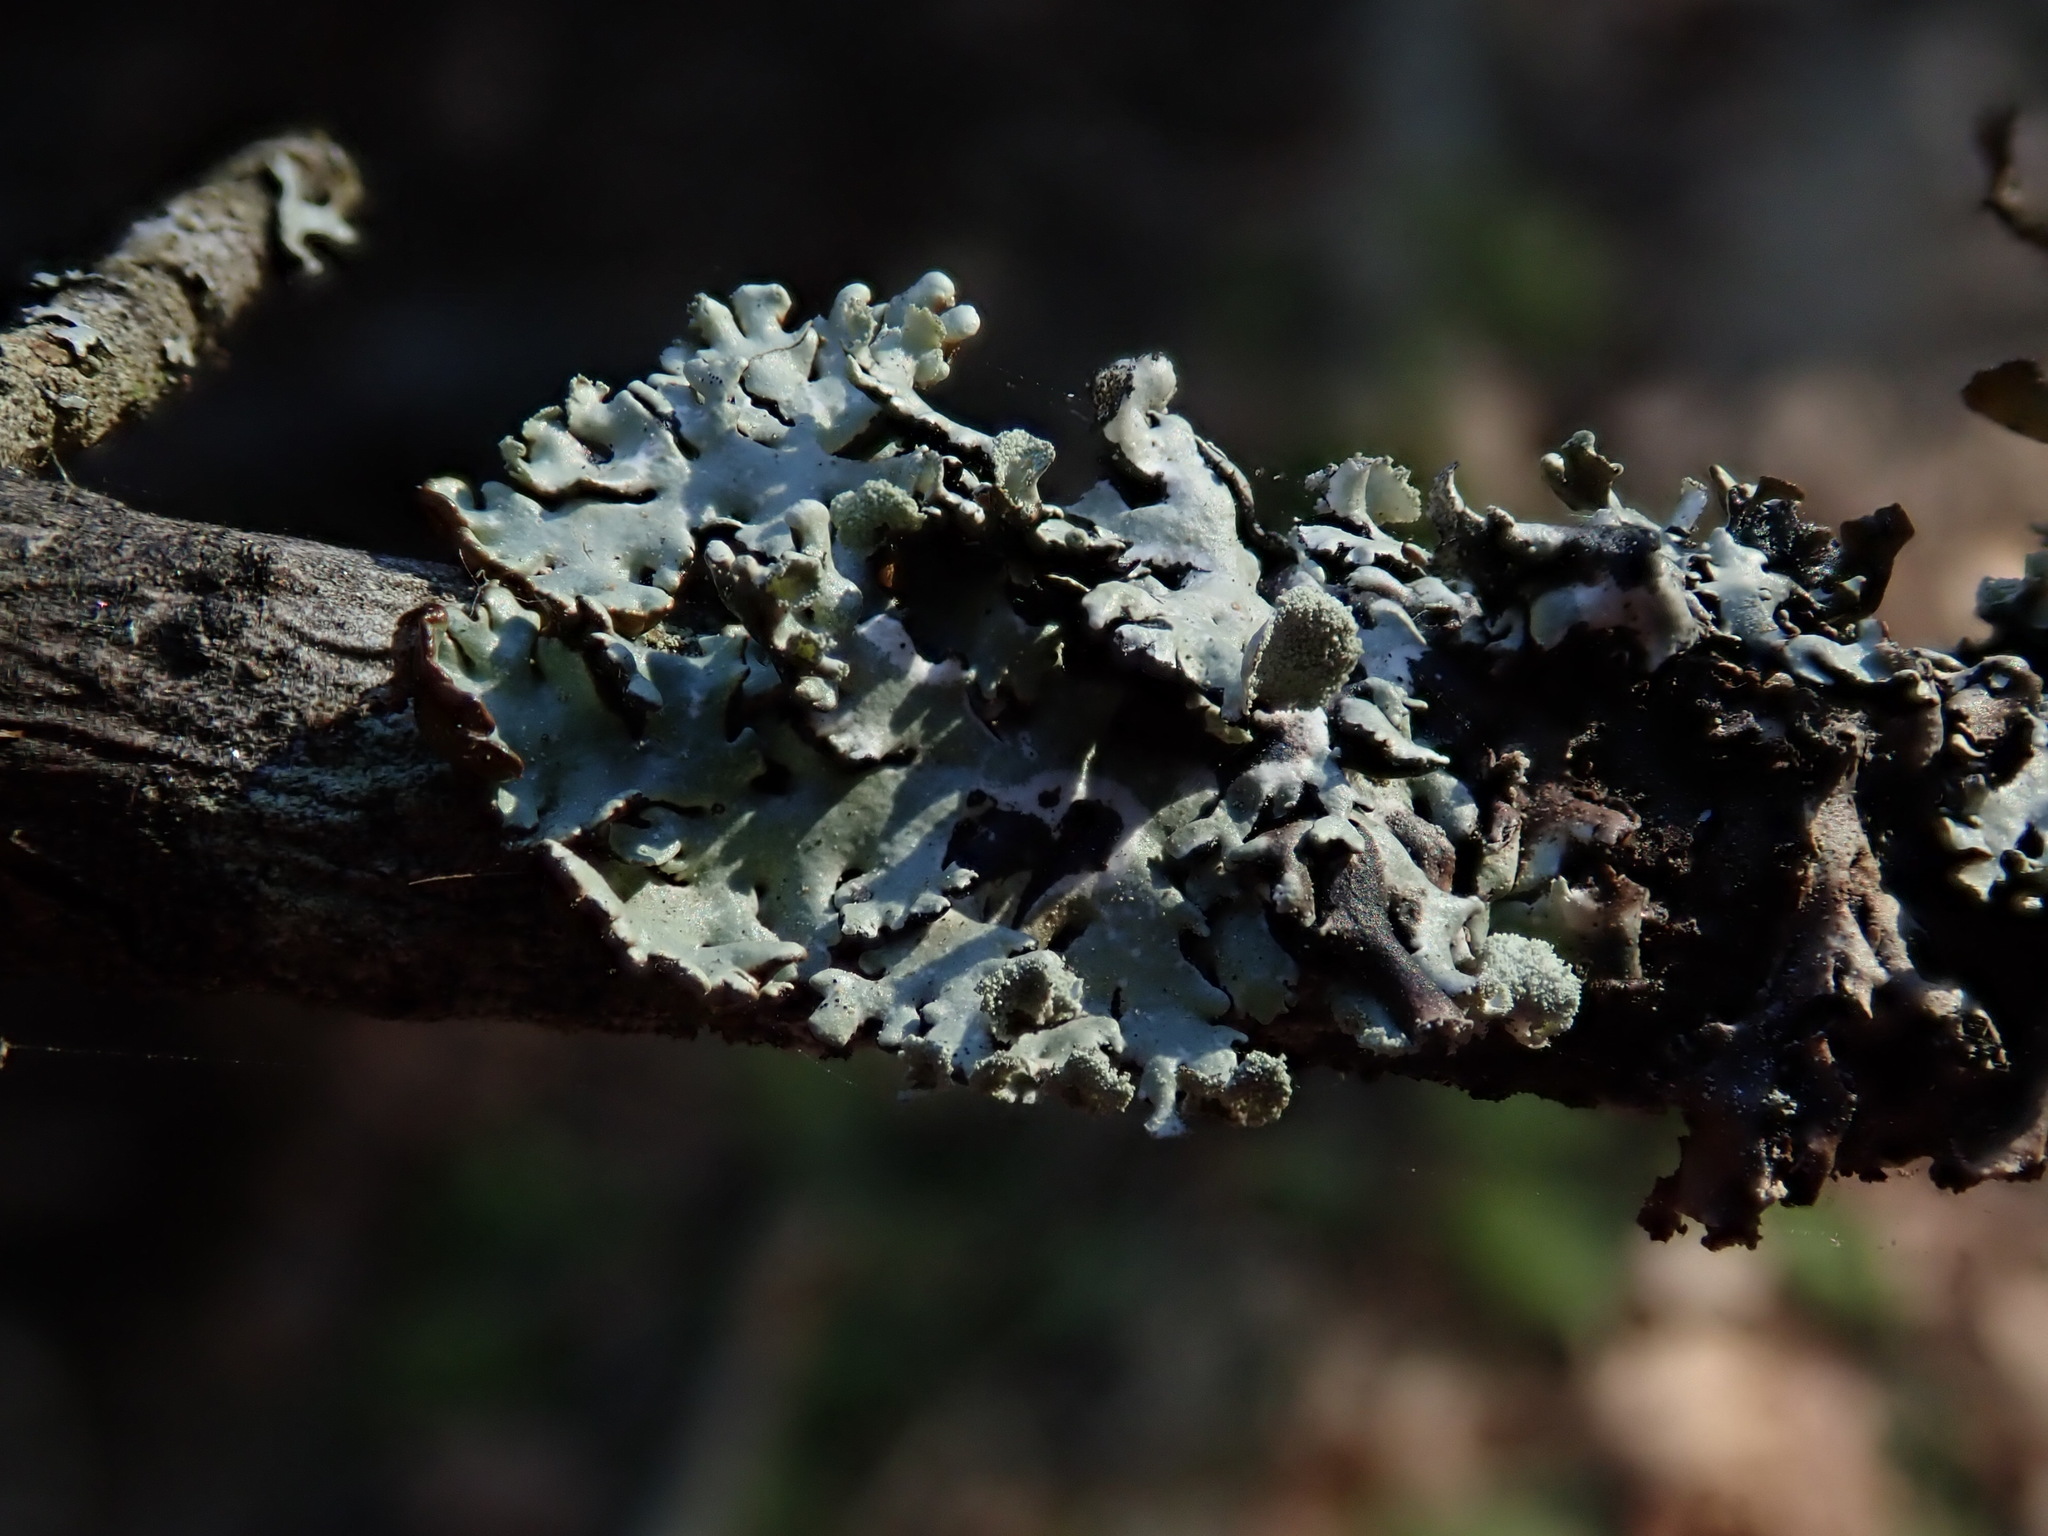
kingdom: Fungi
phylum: Ascomycota
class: Lecanoromycetes
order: Lecanorales
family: Parmeliaceae
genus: Hypogymnia
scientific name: Hypogymnia physodes
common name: Dark crottle
